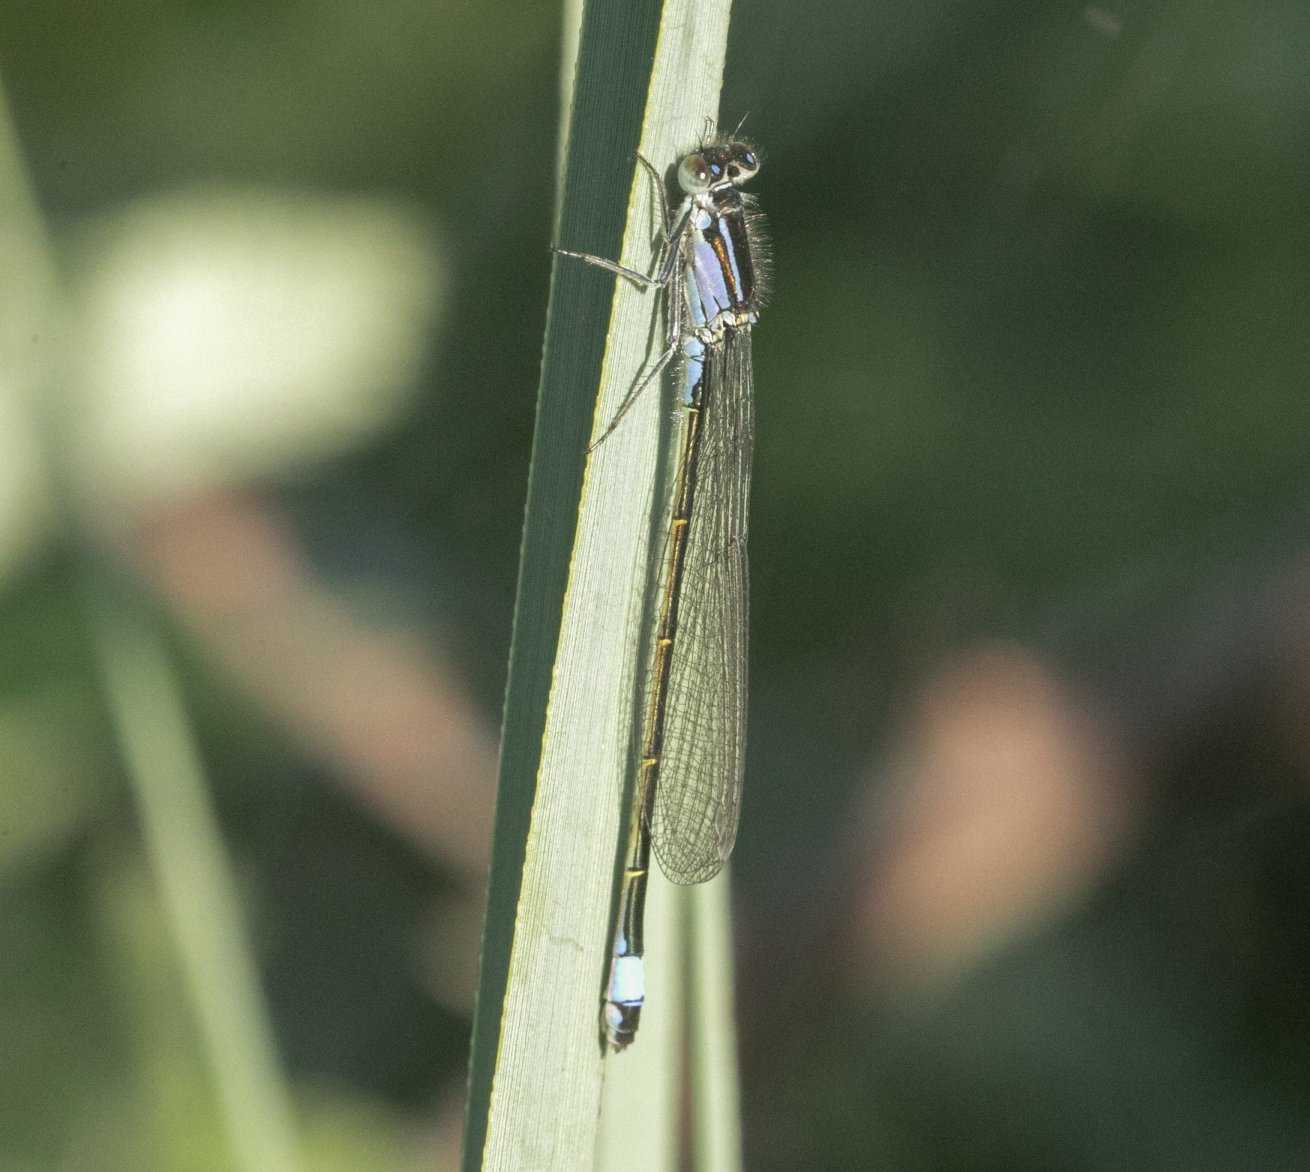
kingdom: Animalia
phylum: Arthropoda
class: Insecta
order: Odonata
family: Coenagrionidae
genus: Ischnura
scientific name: Ischnura elegans
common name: Blue-tailed damselfly
